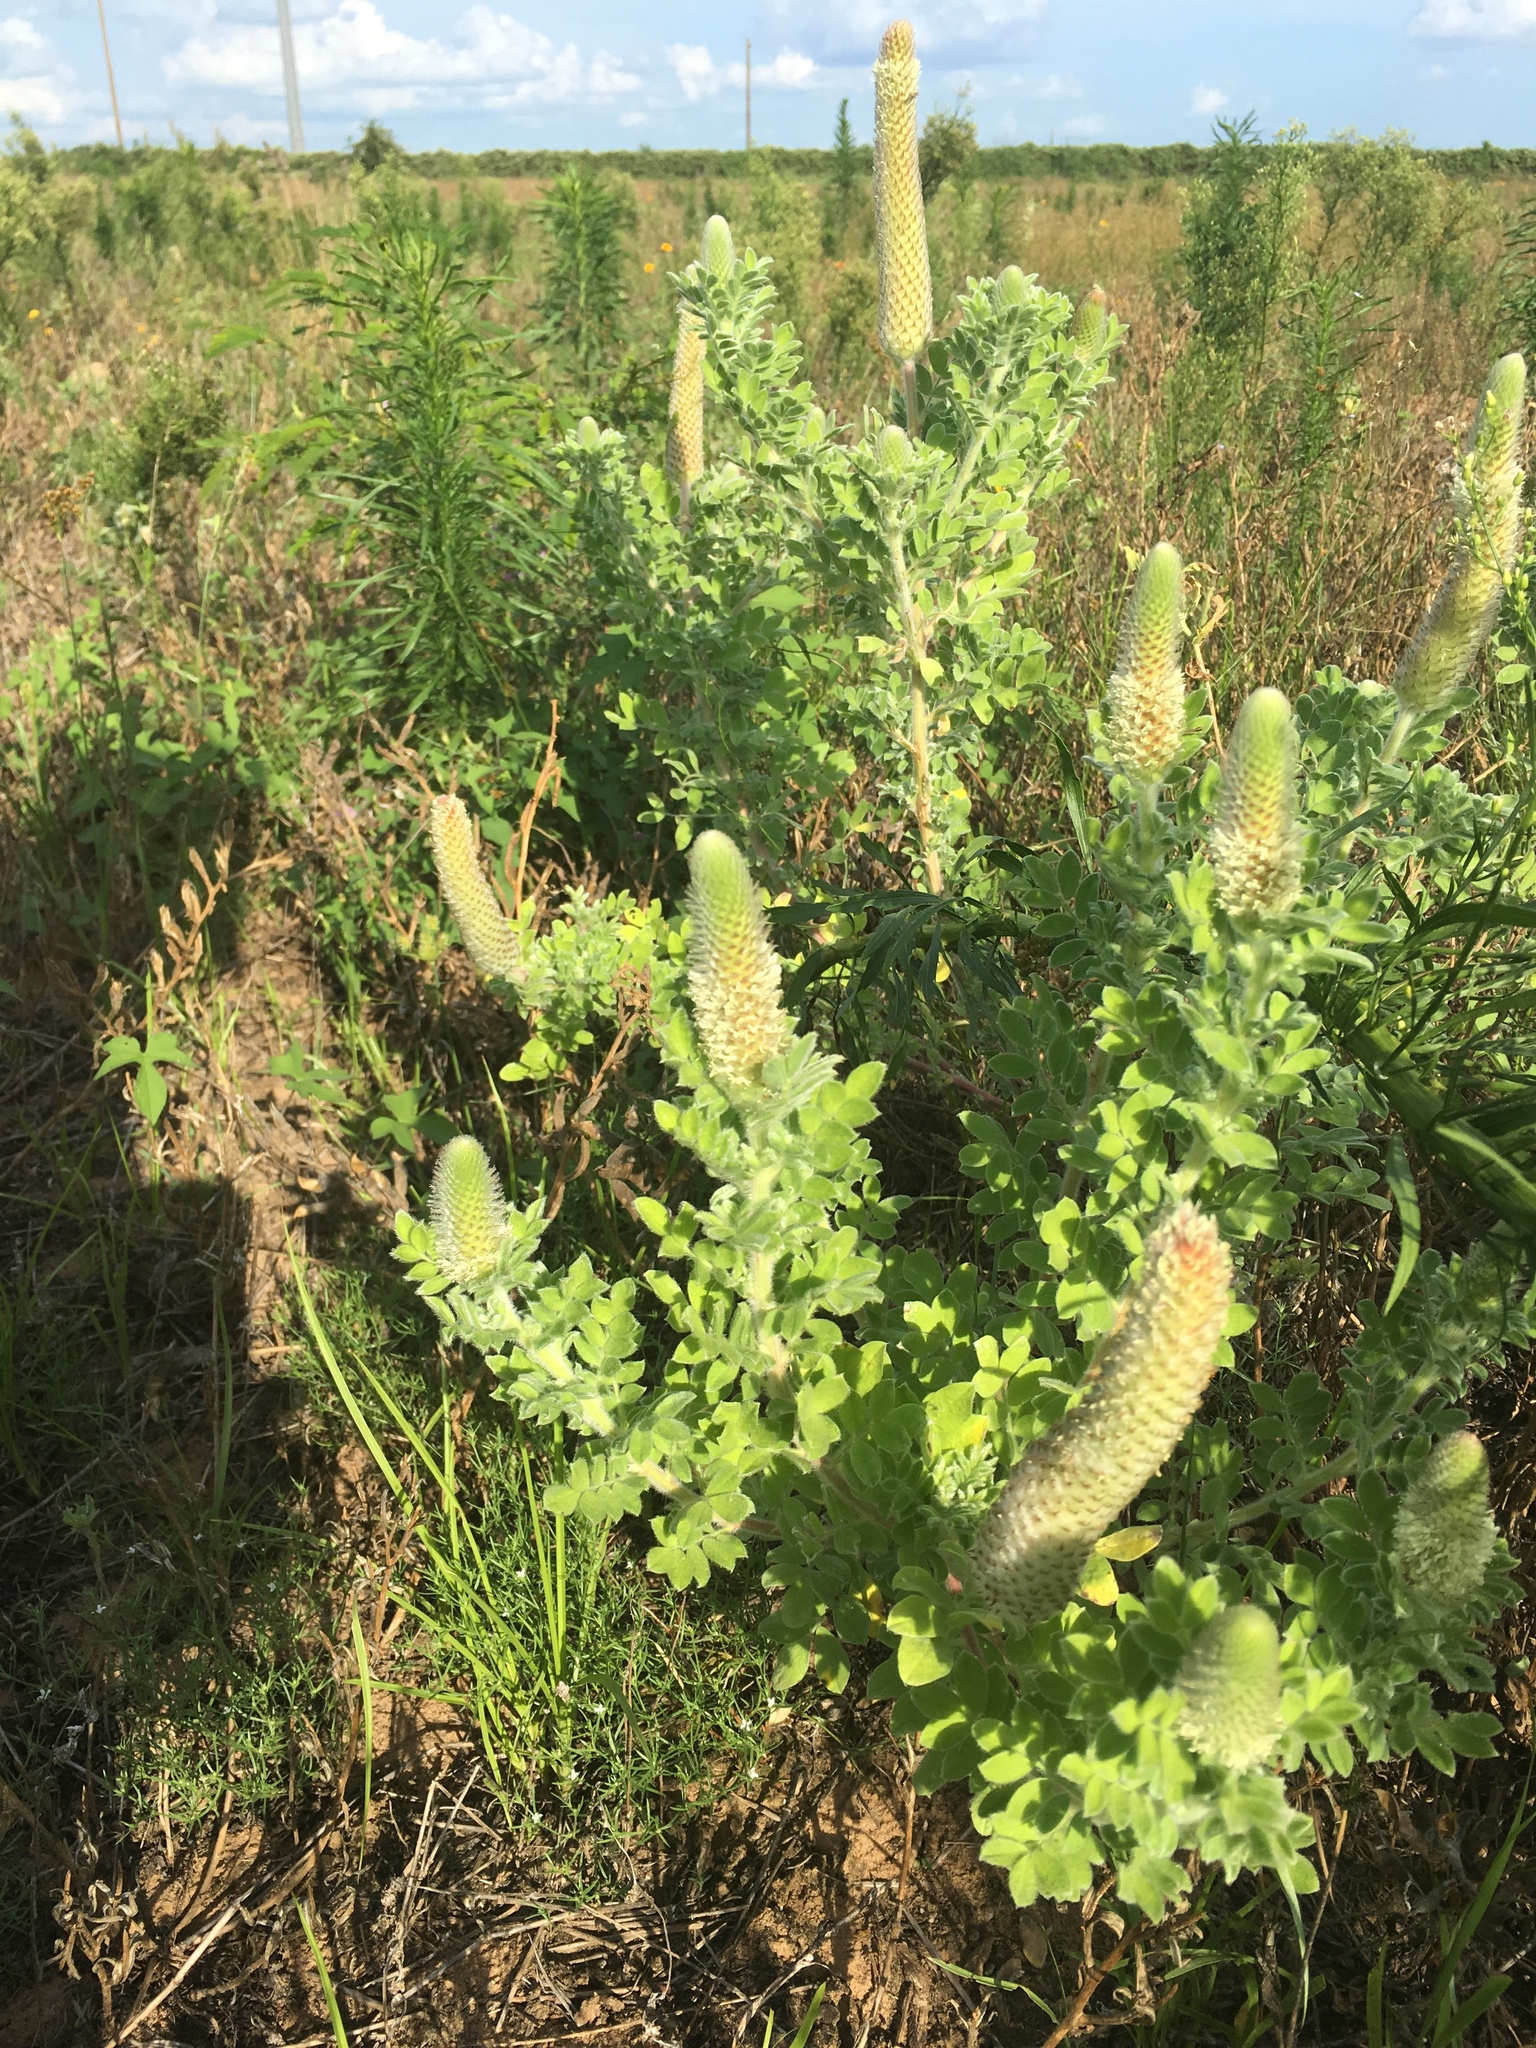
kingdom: Plantae
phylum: Tracheophyta
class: Magnoliopsida
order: Lamiales
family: Tetrachondraceae
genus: Polypremum
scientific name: Polypremum procumbens
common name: Juniper-leaf
